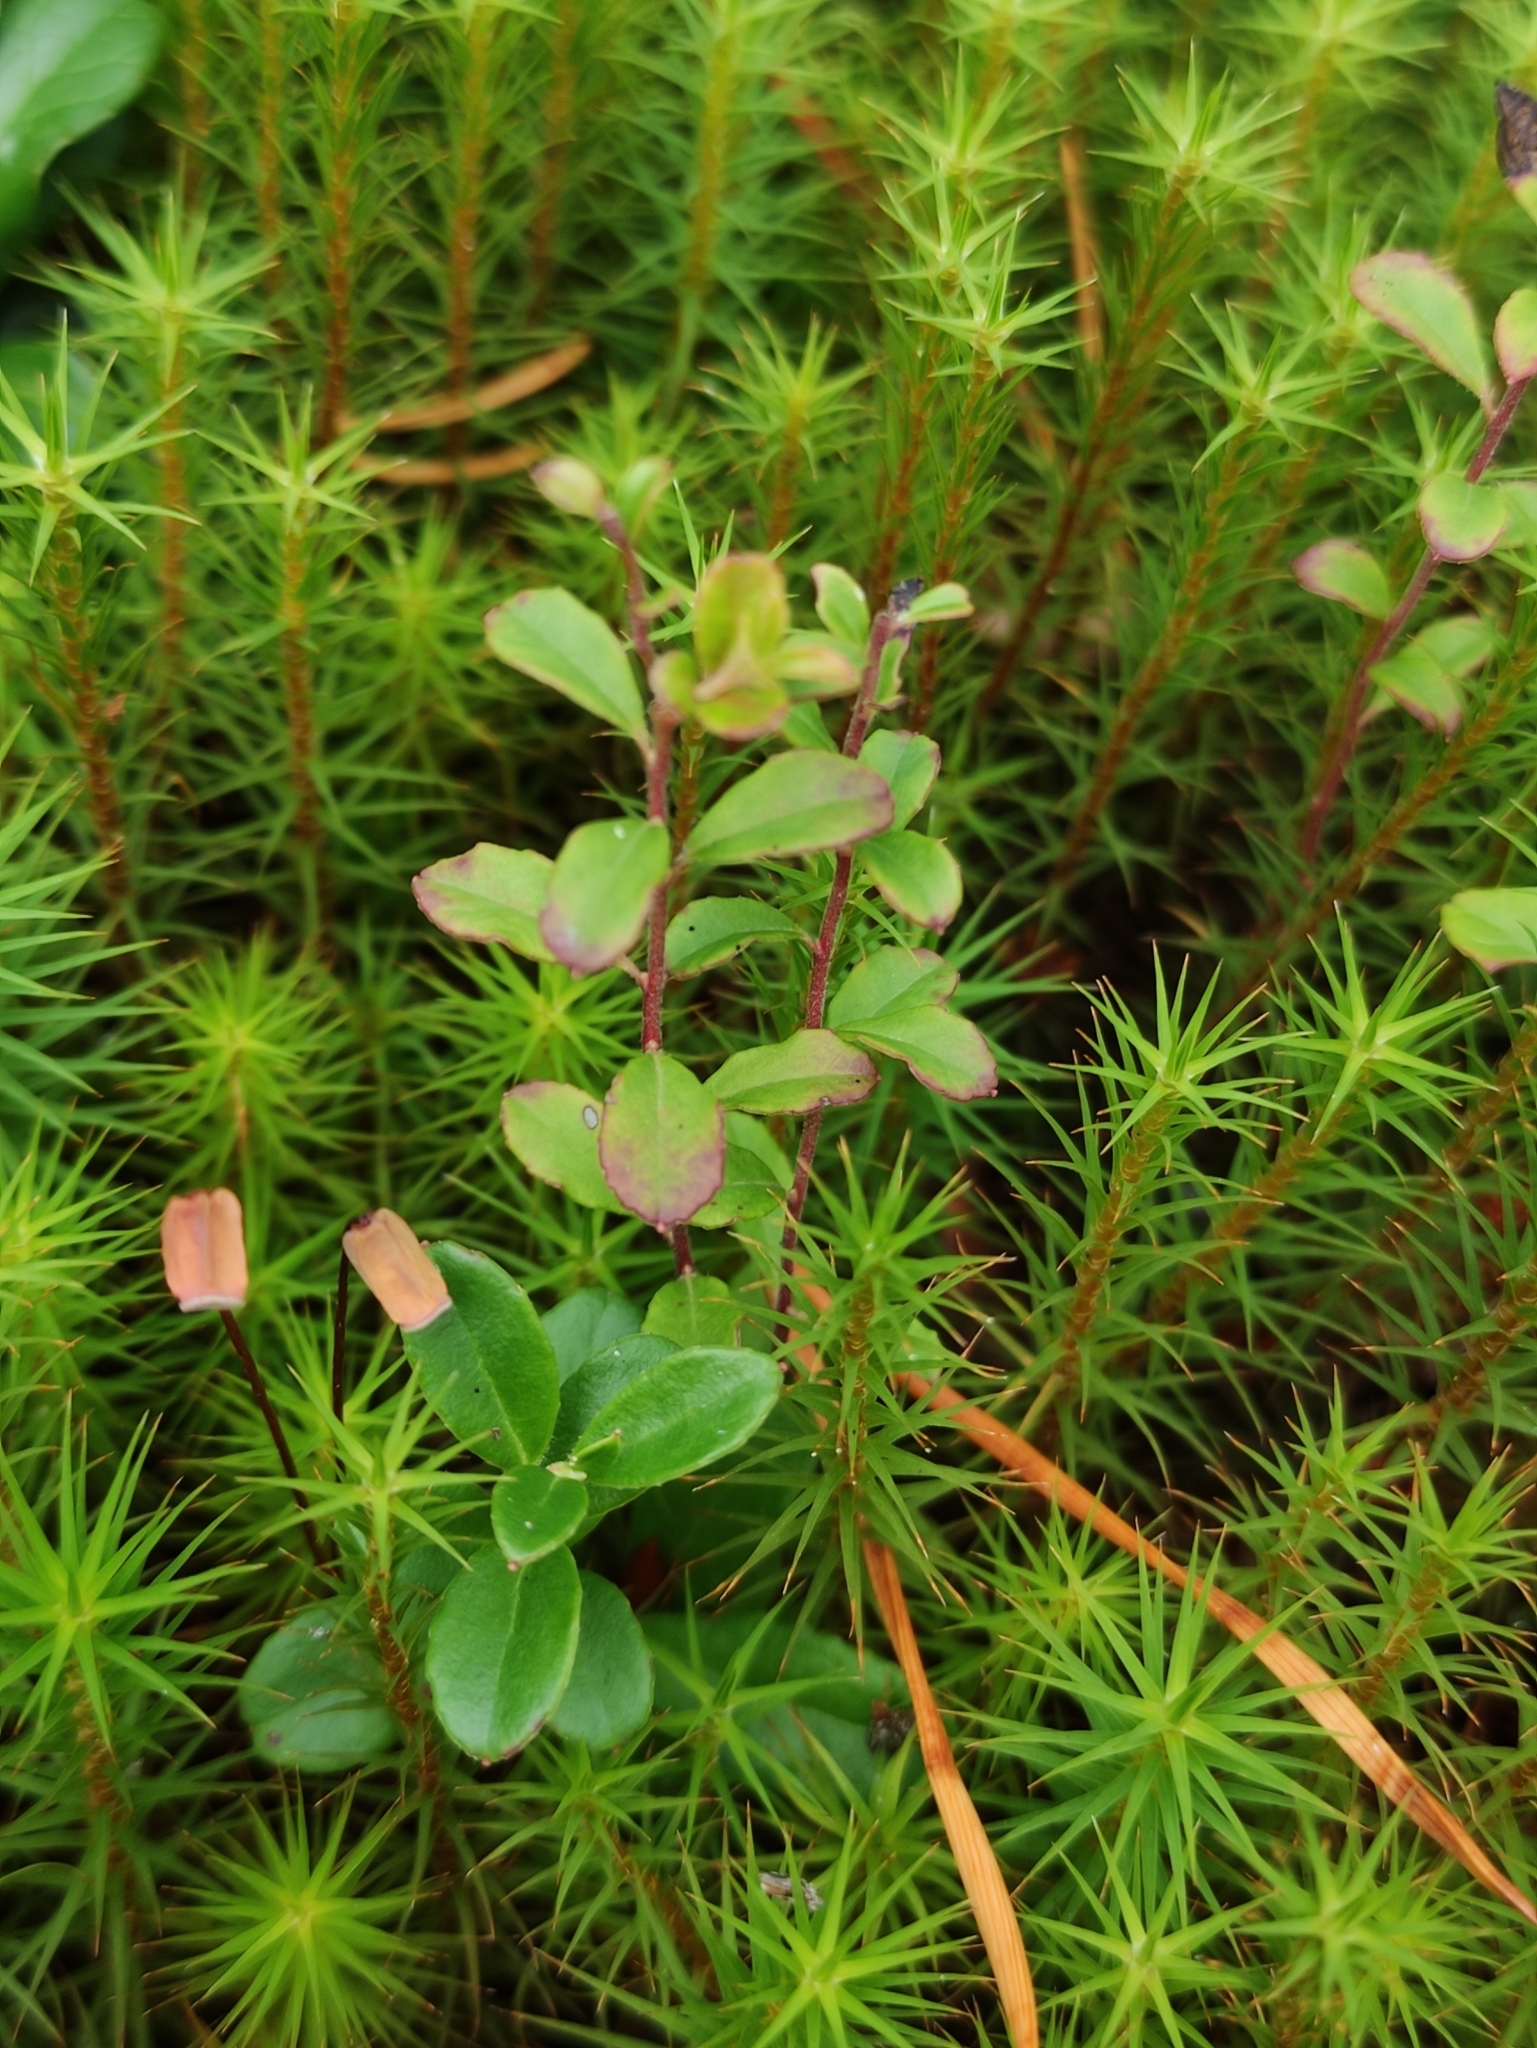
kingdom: Plantae
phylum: Tracheophyta
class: Magnoliopsida
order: Ericales
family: Ericaceae
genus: Vaccinium
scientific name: Vaccinium vitis-idaea
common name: Cowberry
